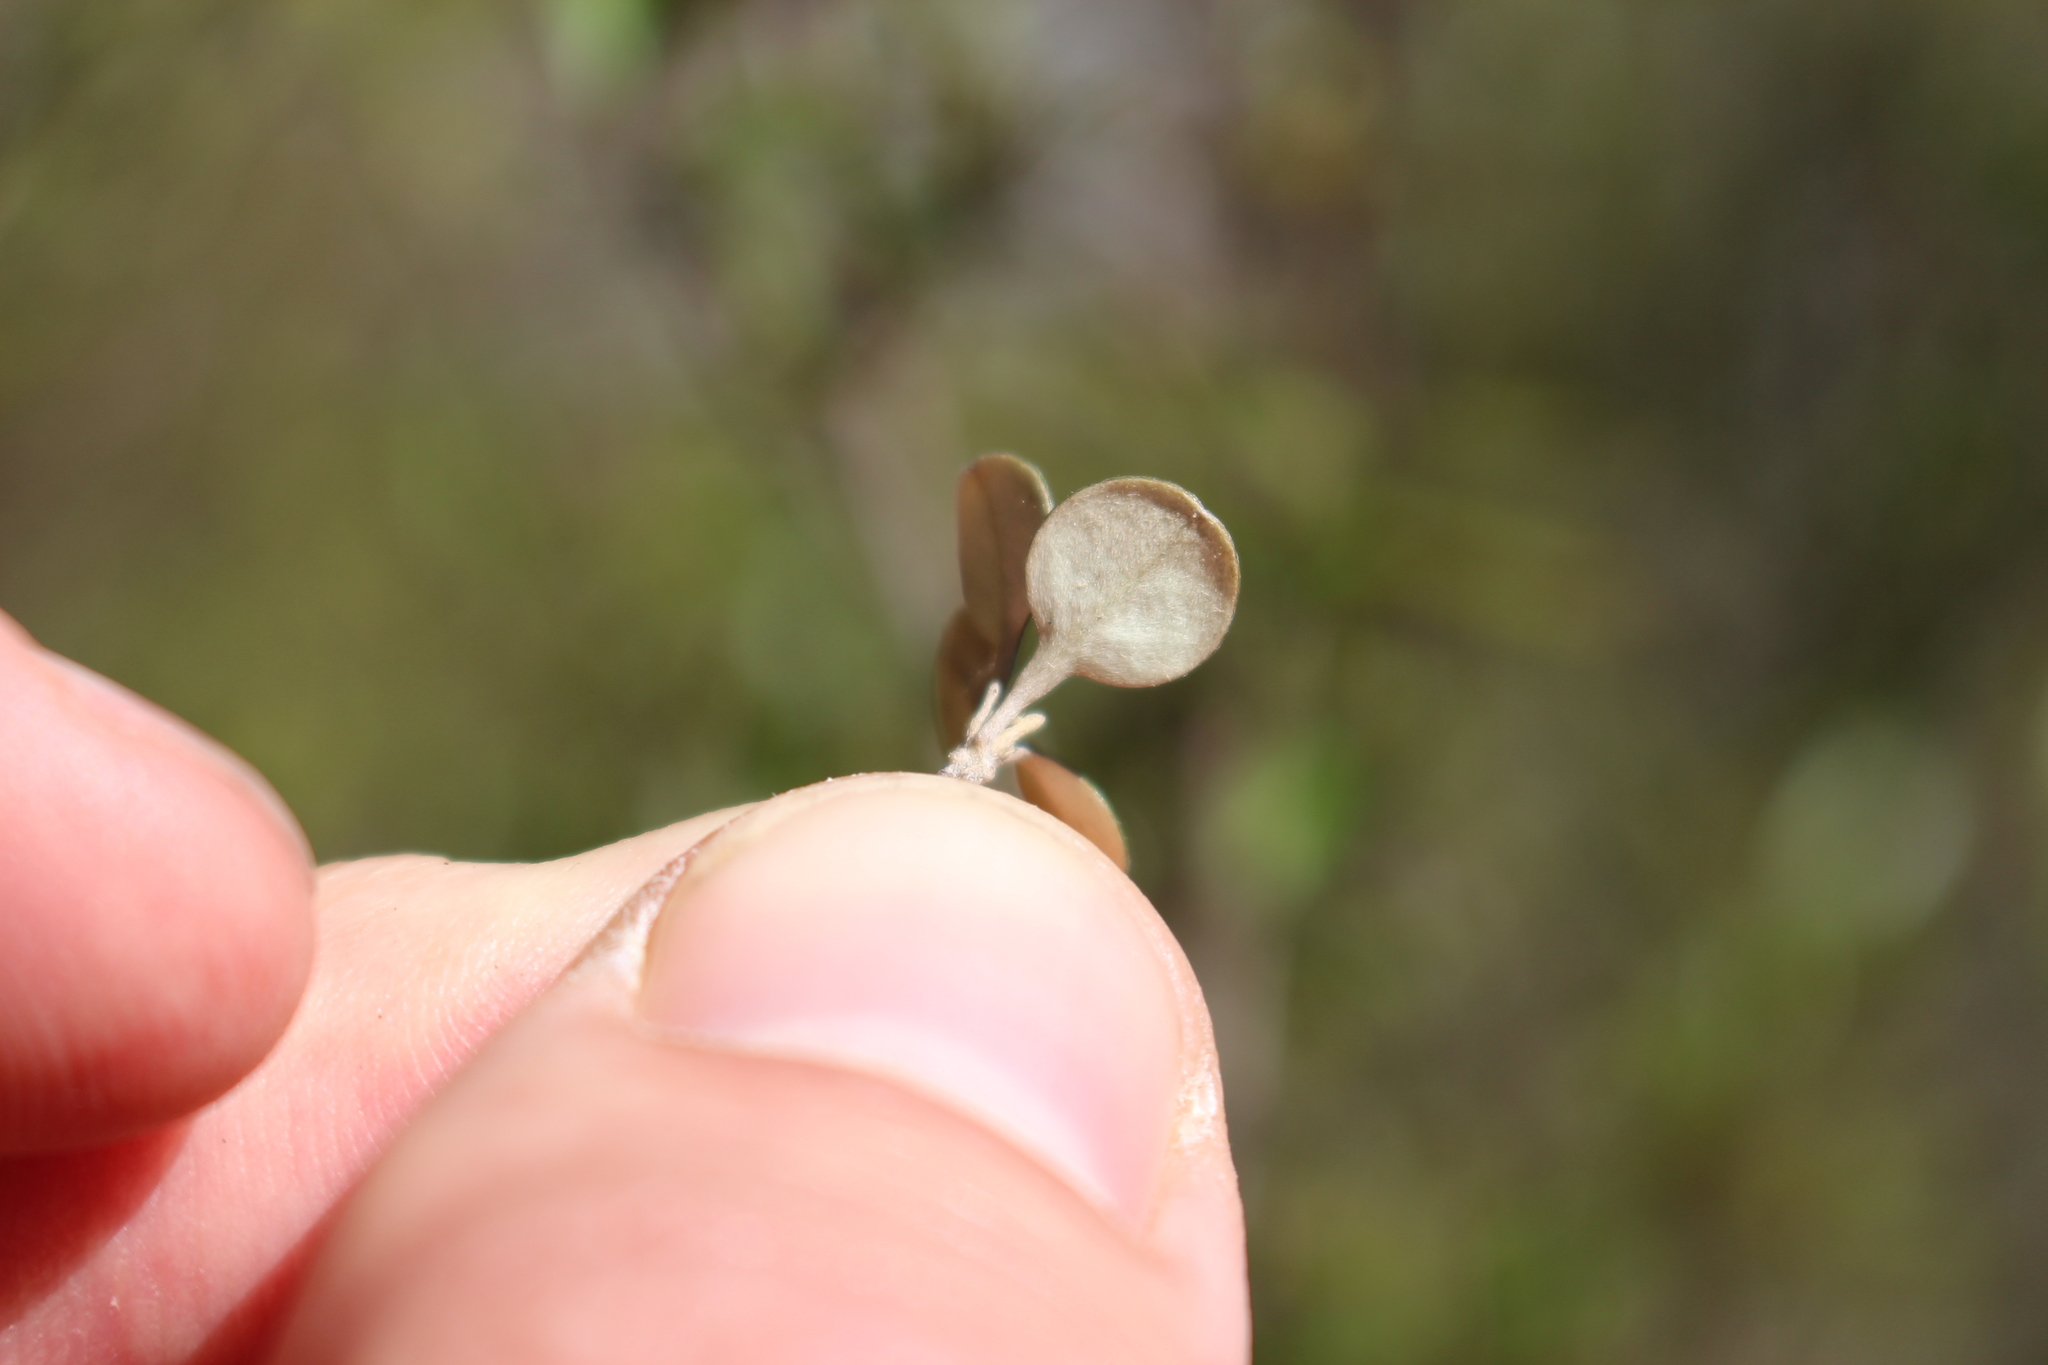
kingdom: Plantae
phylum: Tracheophyta
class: Magnoliopsida
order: Asterales
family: Argophyllaceae
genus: Corokia
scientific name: Corokia cotoneaster
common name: Wire nettingbush
